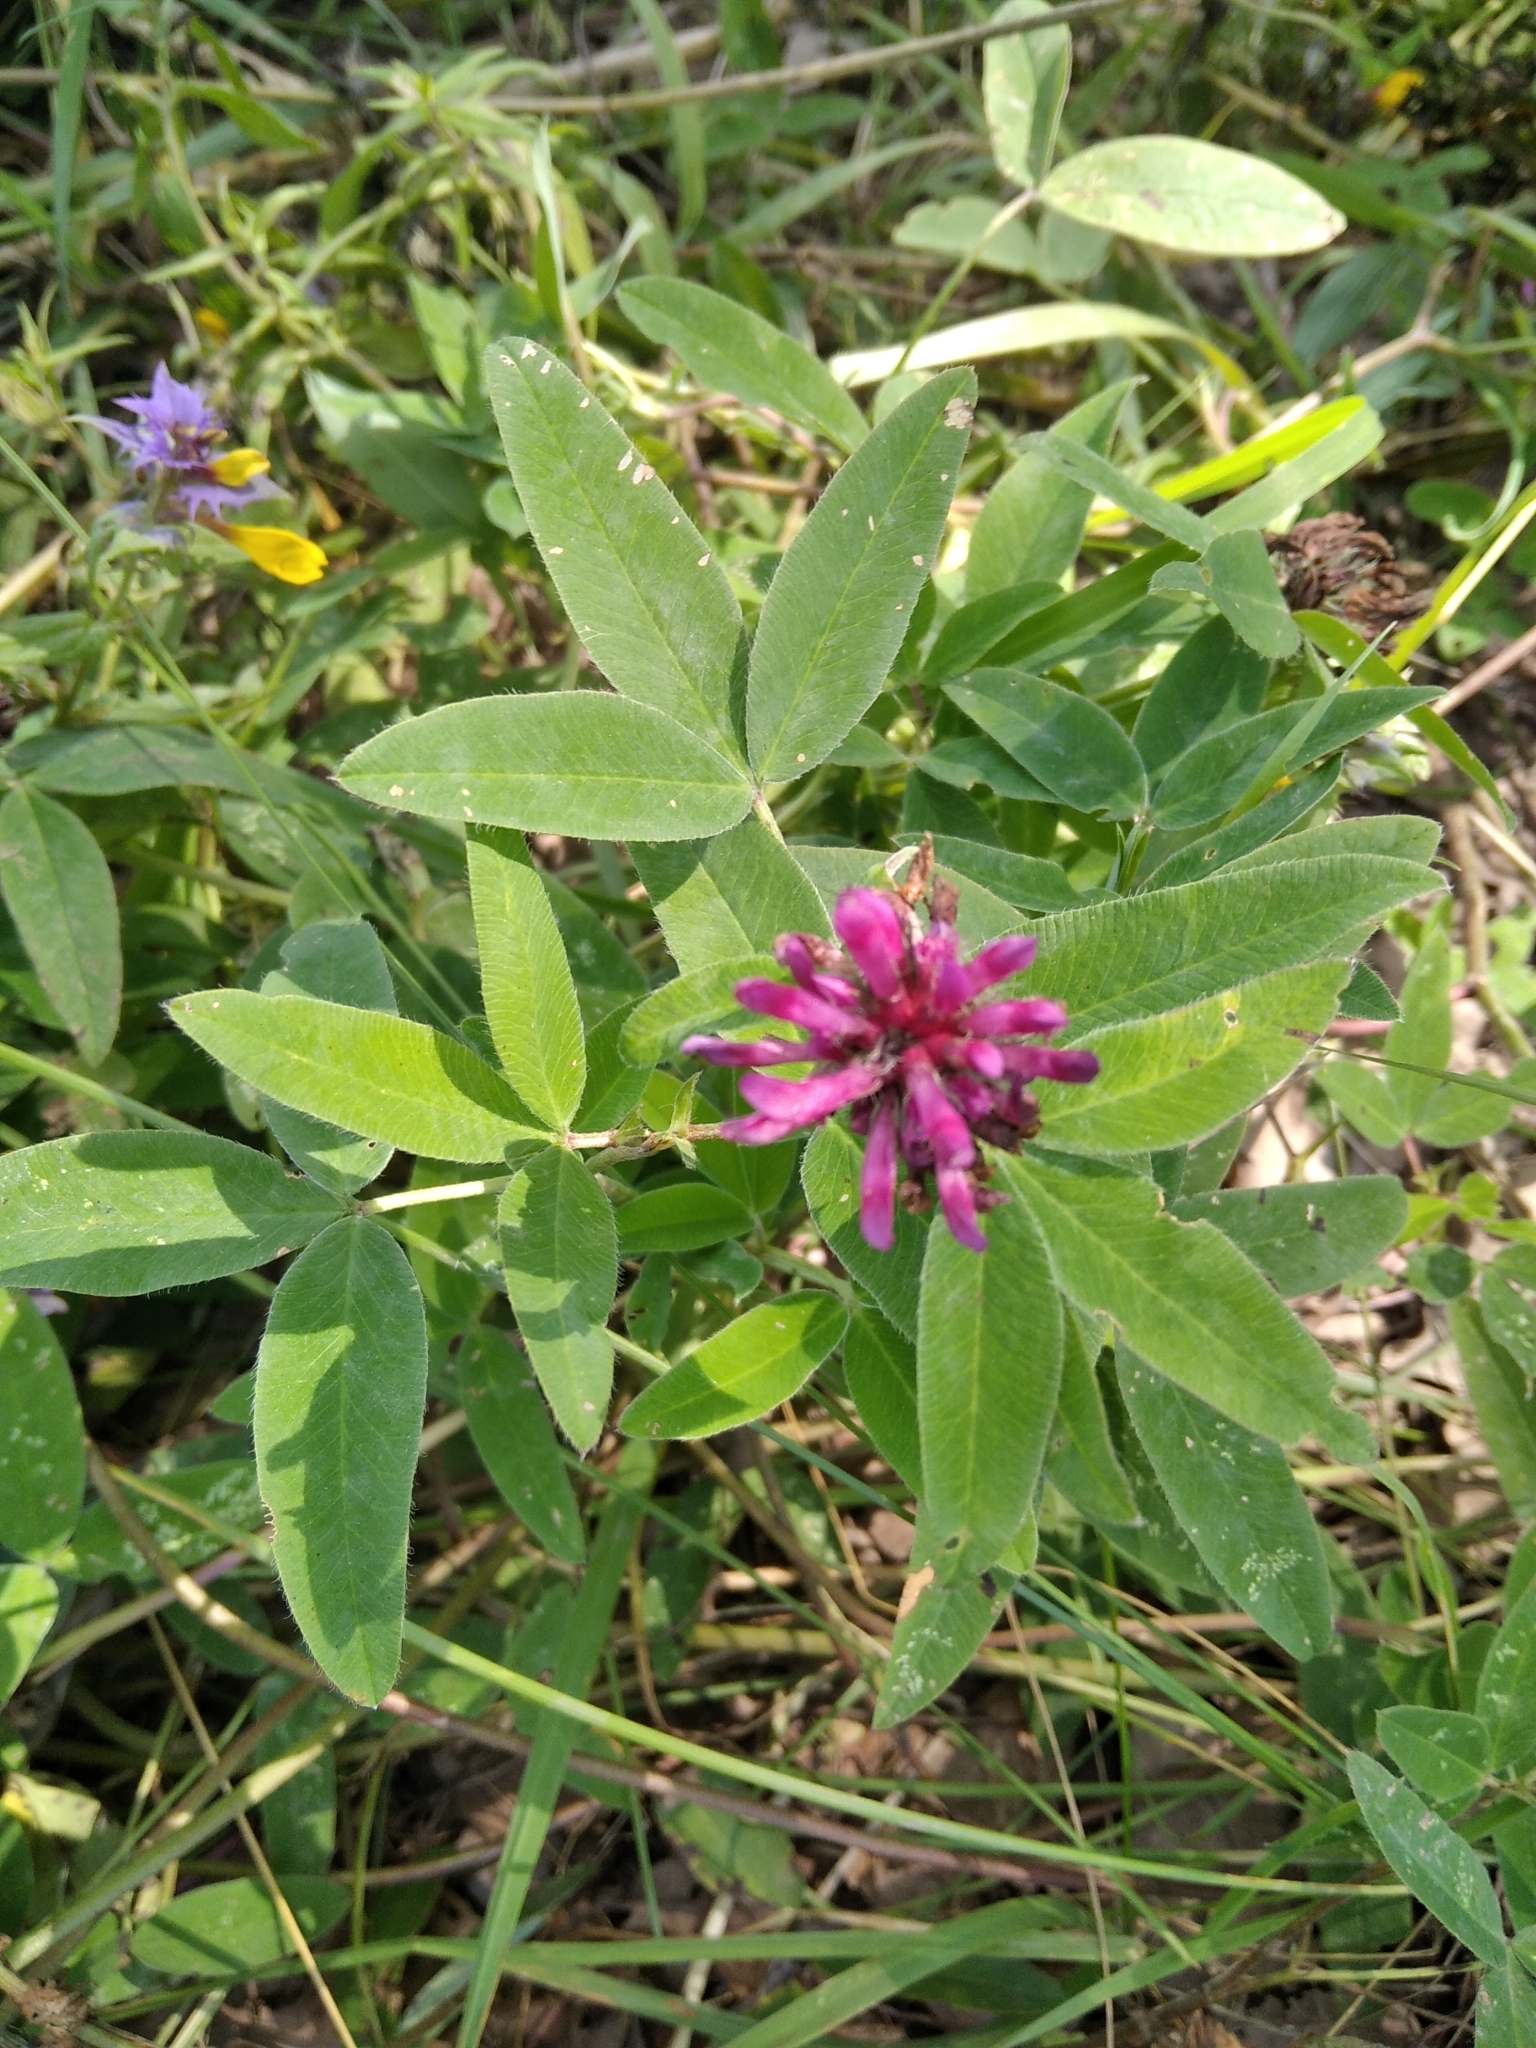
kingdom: Plantae
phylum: Tracheophyta
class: Magnoliopsida
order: Fabales
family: Fabaceae
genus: Trifolium
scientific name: Trifolium medium
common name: Zigzag clover
